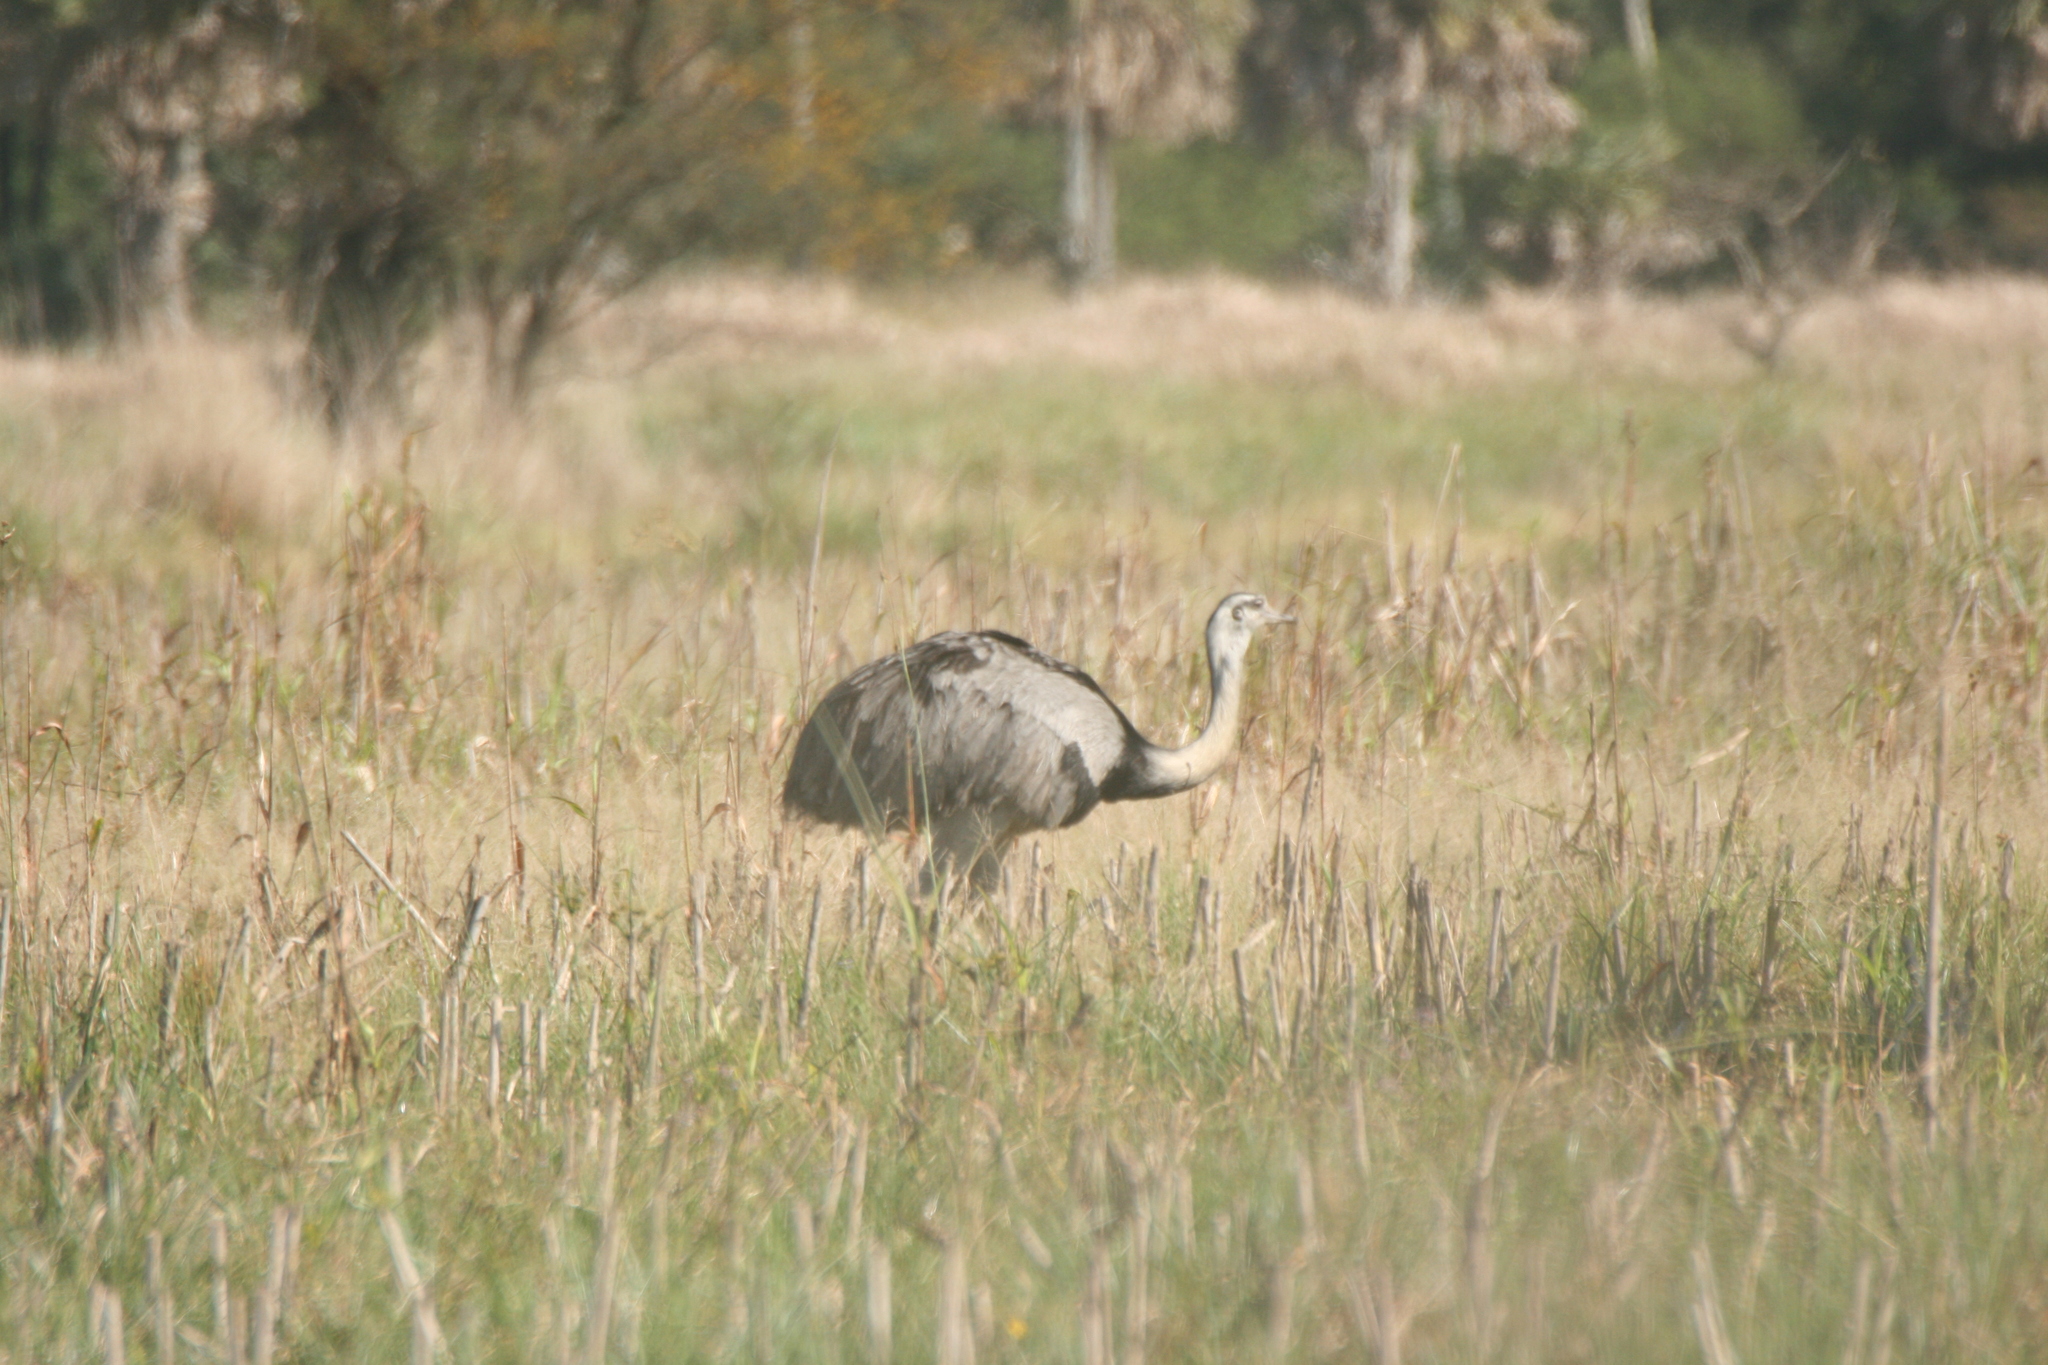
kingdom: Animalia
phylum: Chordata
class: Aves
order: Rheiformes
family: Rheidae
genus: Rhea
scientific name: Rhea americana
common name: Greater rhea
